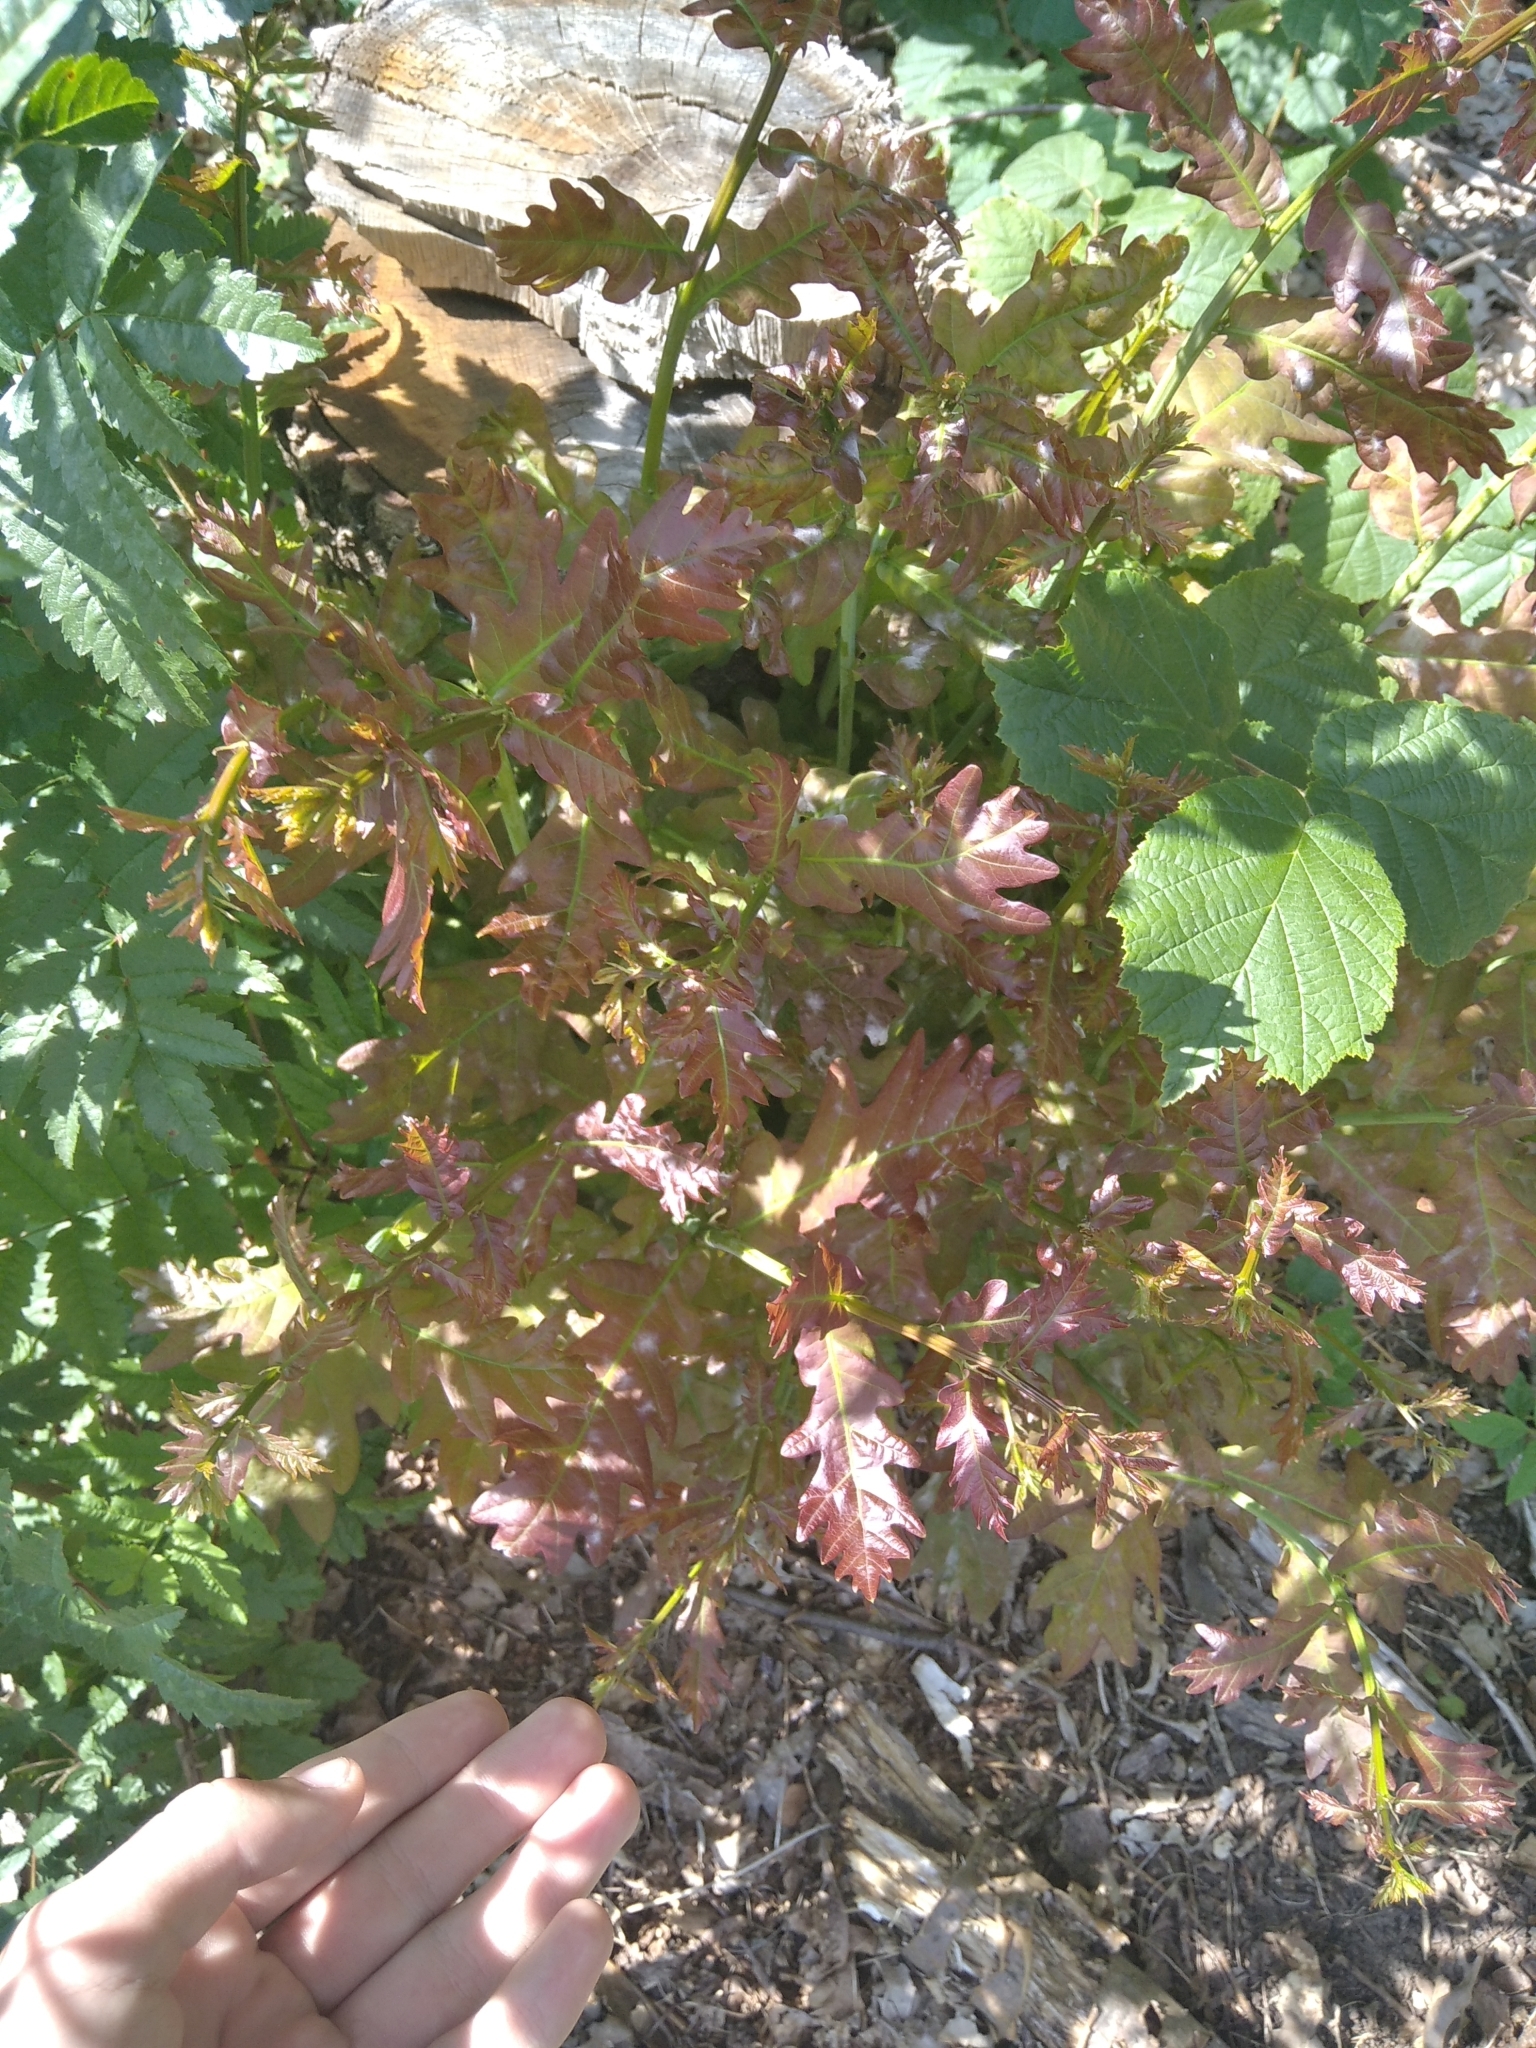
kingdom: Plantae
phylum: Tracheophyta
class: Magnoliopsida
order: Fagales
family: Fagaceae
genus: Quercus
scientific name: Quercus robur
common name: Pedunculate oak
